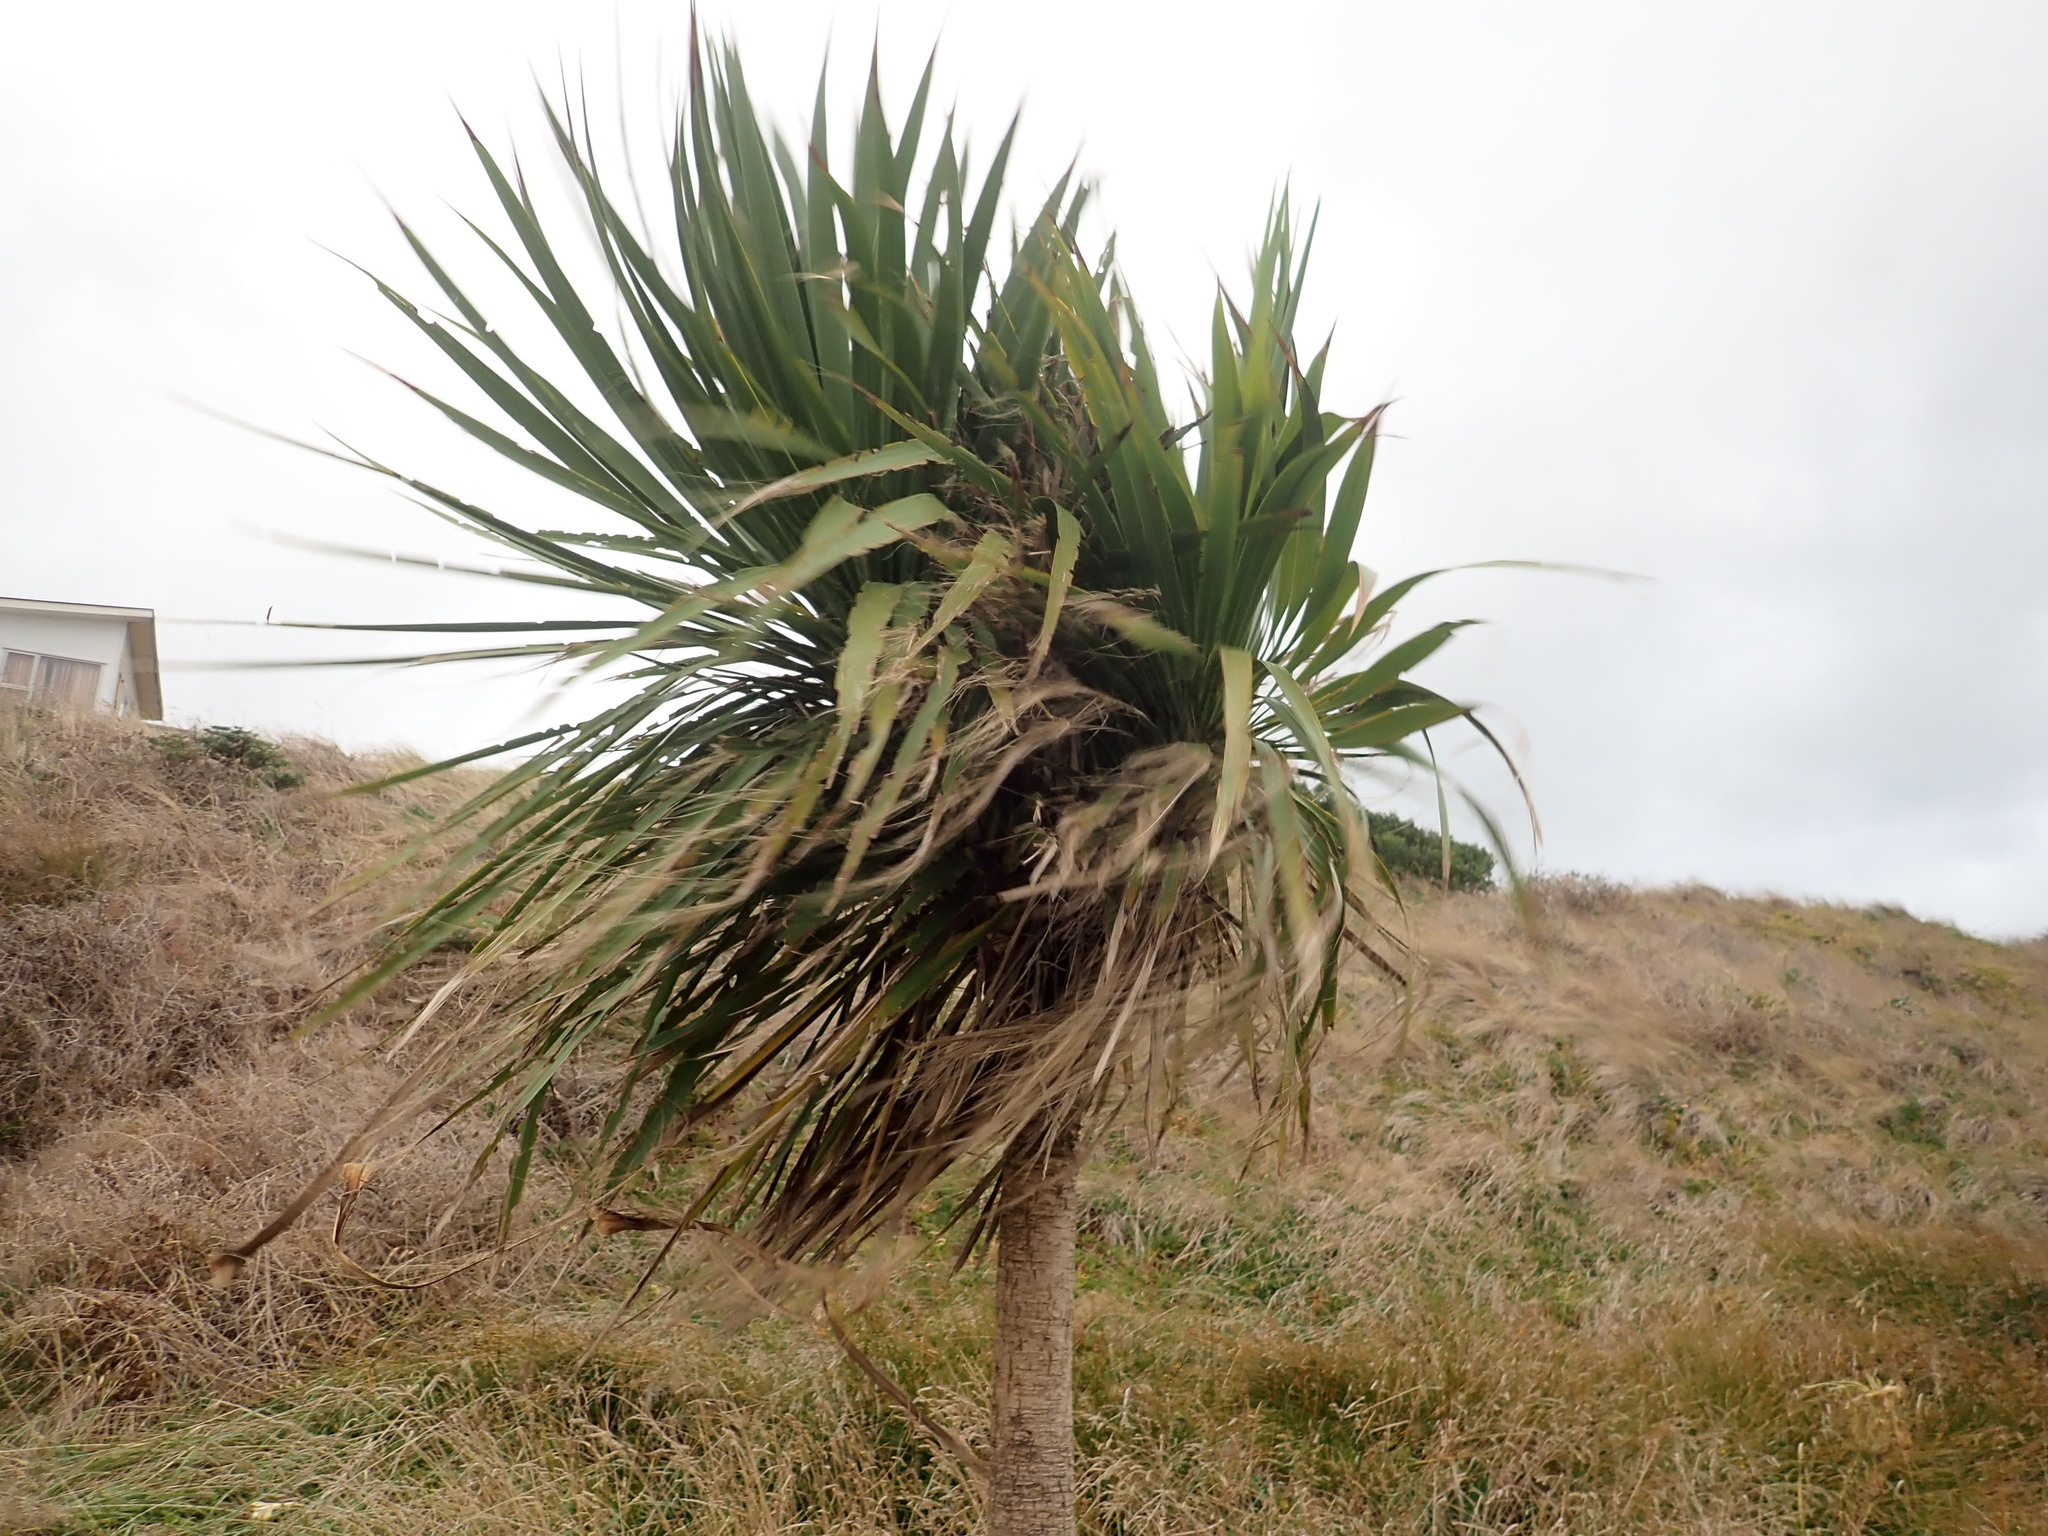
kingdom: Plantae
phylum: Tracheophyta
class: Liliopsida
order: Asparagales
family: Asparagaceae
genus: Cordyline
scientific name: Cordyline australis
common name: Cabbage-palm
